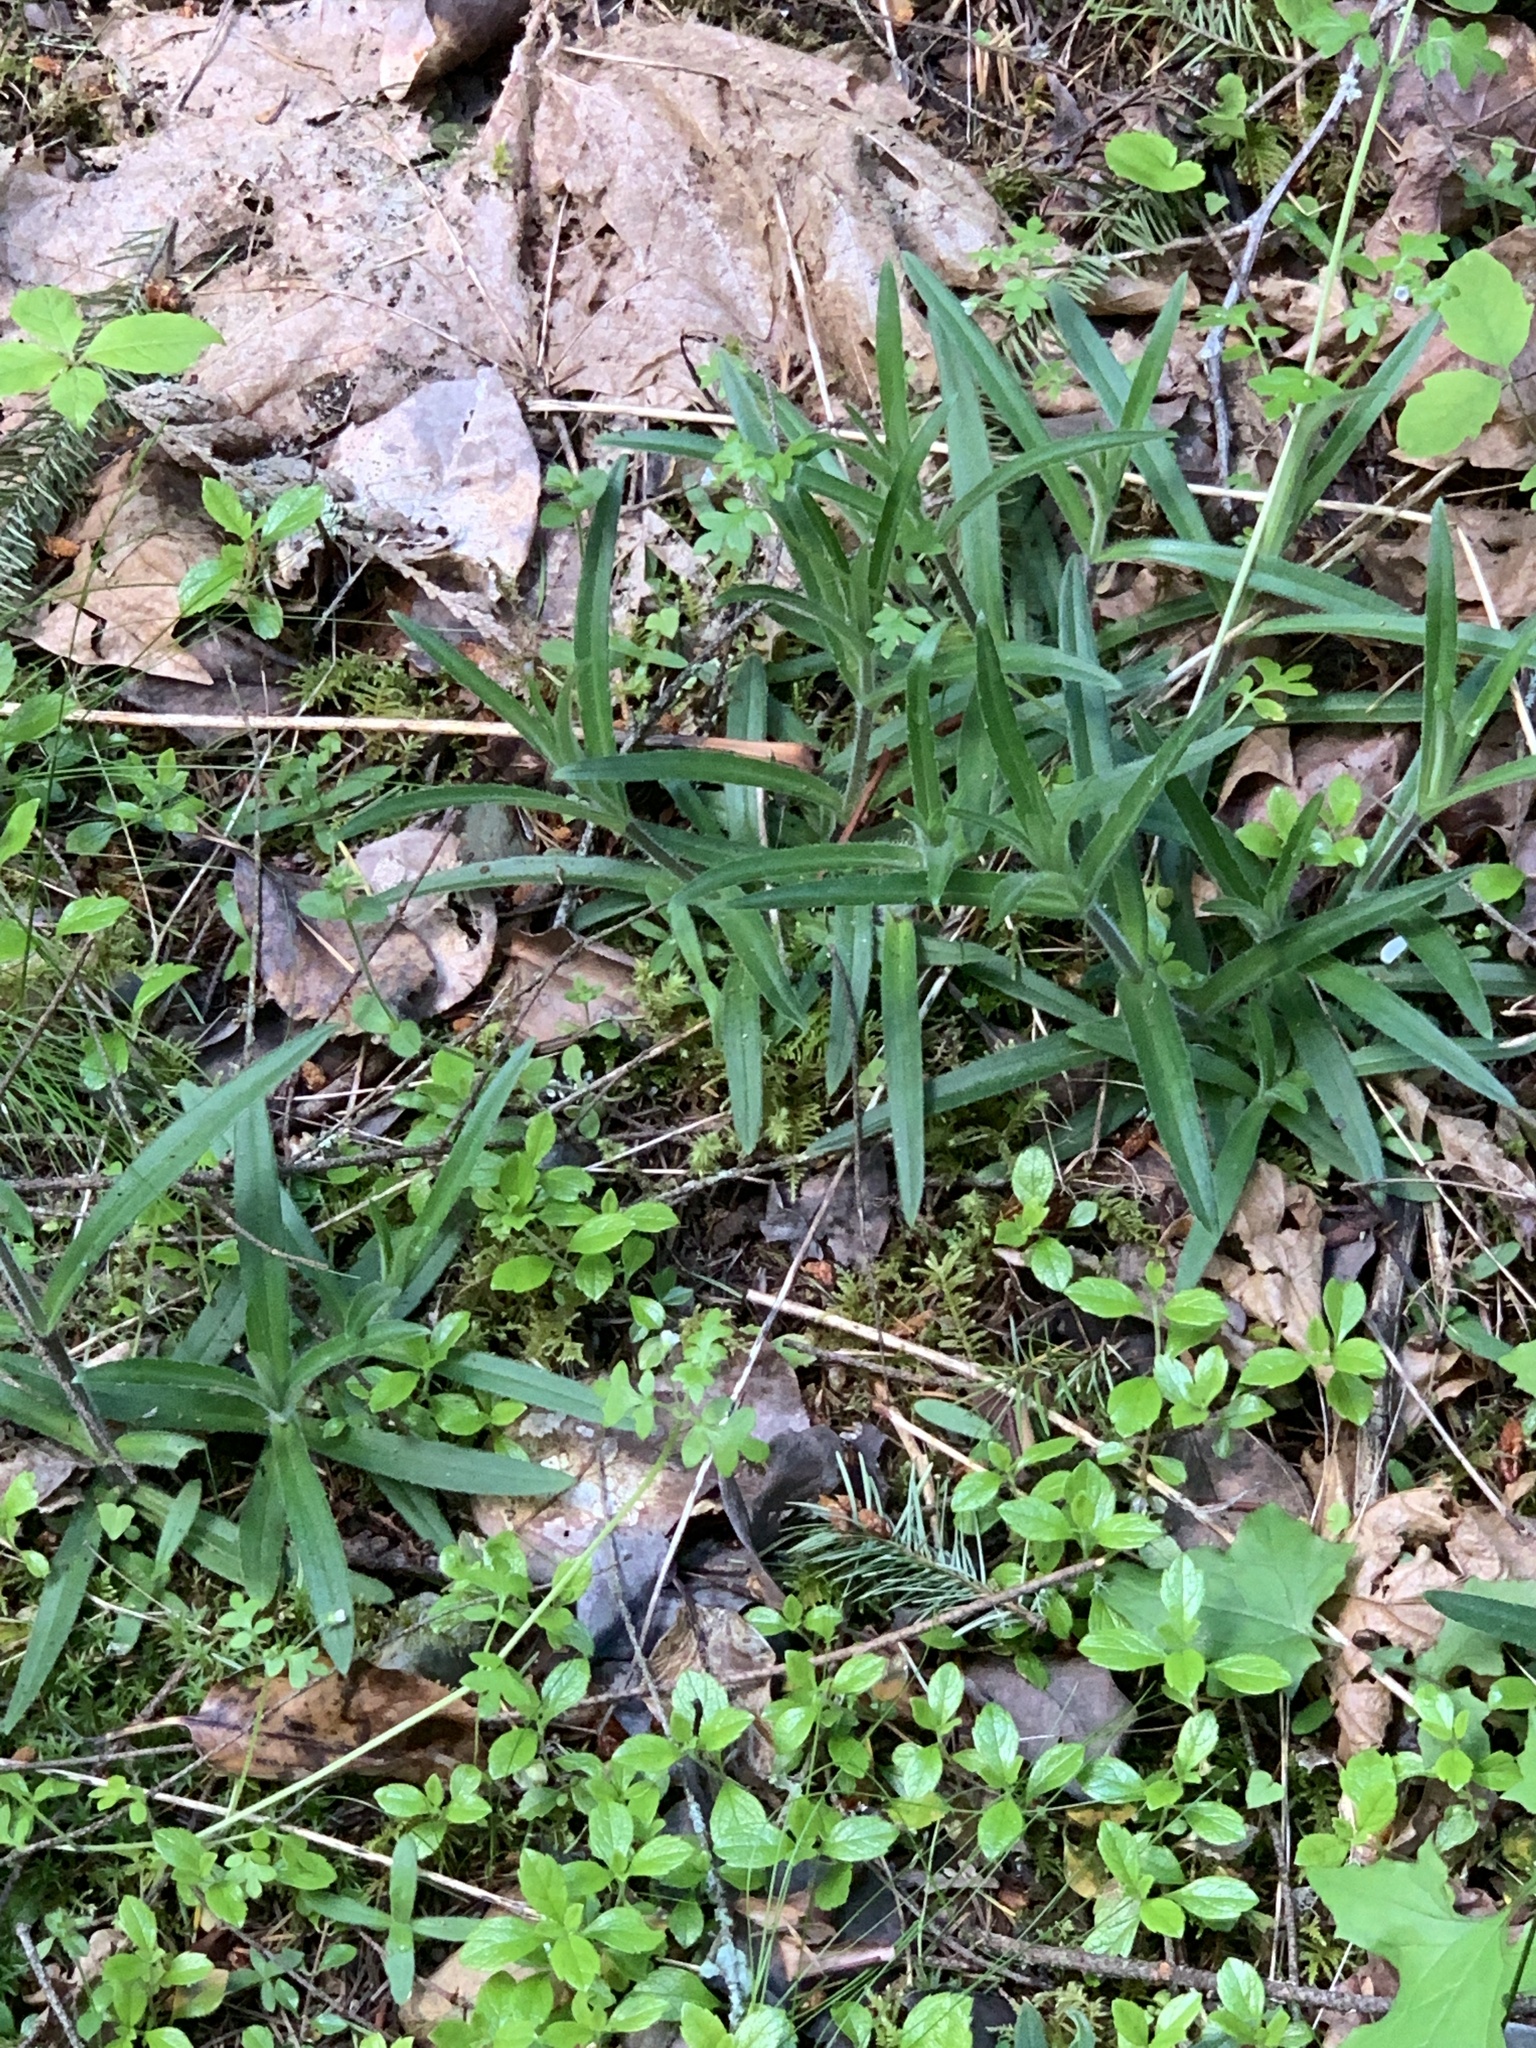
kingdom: Plantae
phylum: Tracheophyta
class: Magnoliopsida
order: Asterales
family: Asteraceae
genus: Anisocarpus
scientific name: Anisocarpus madioides
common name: Woodland madia
